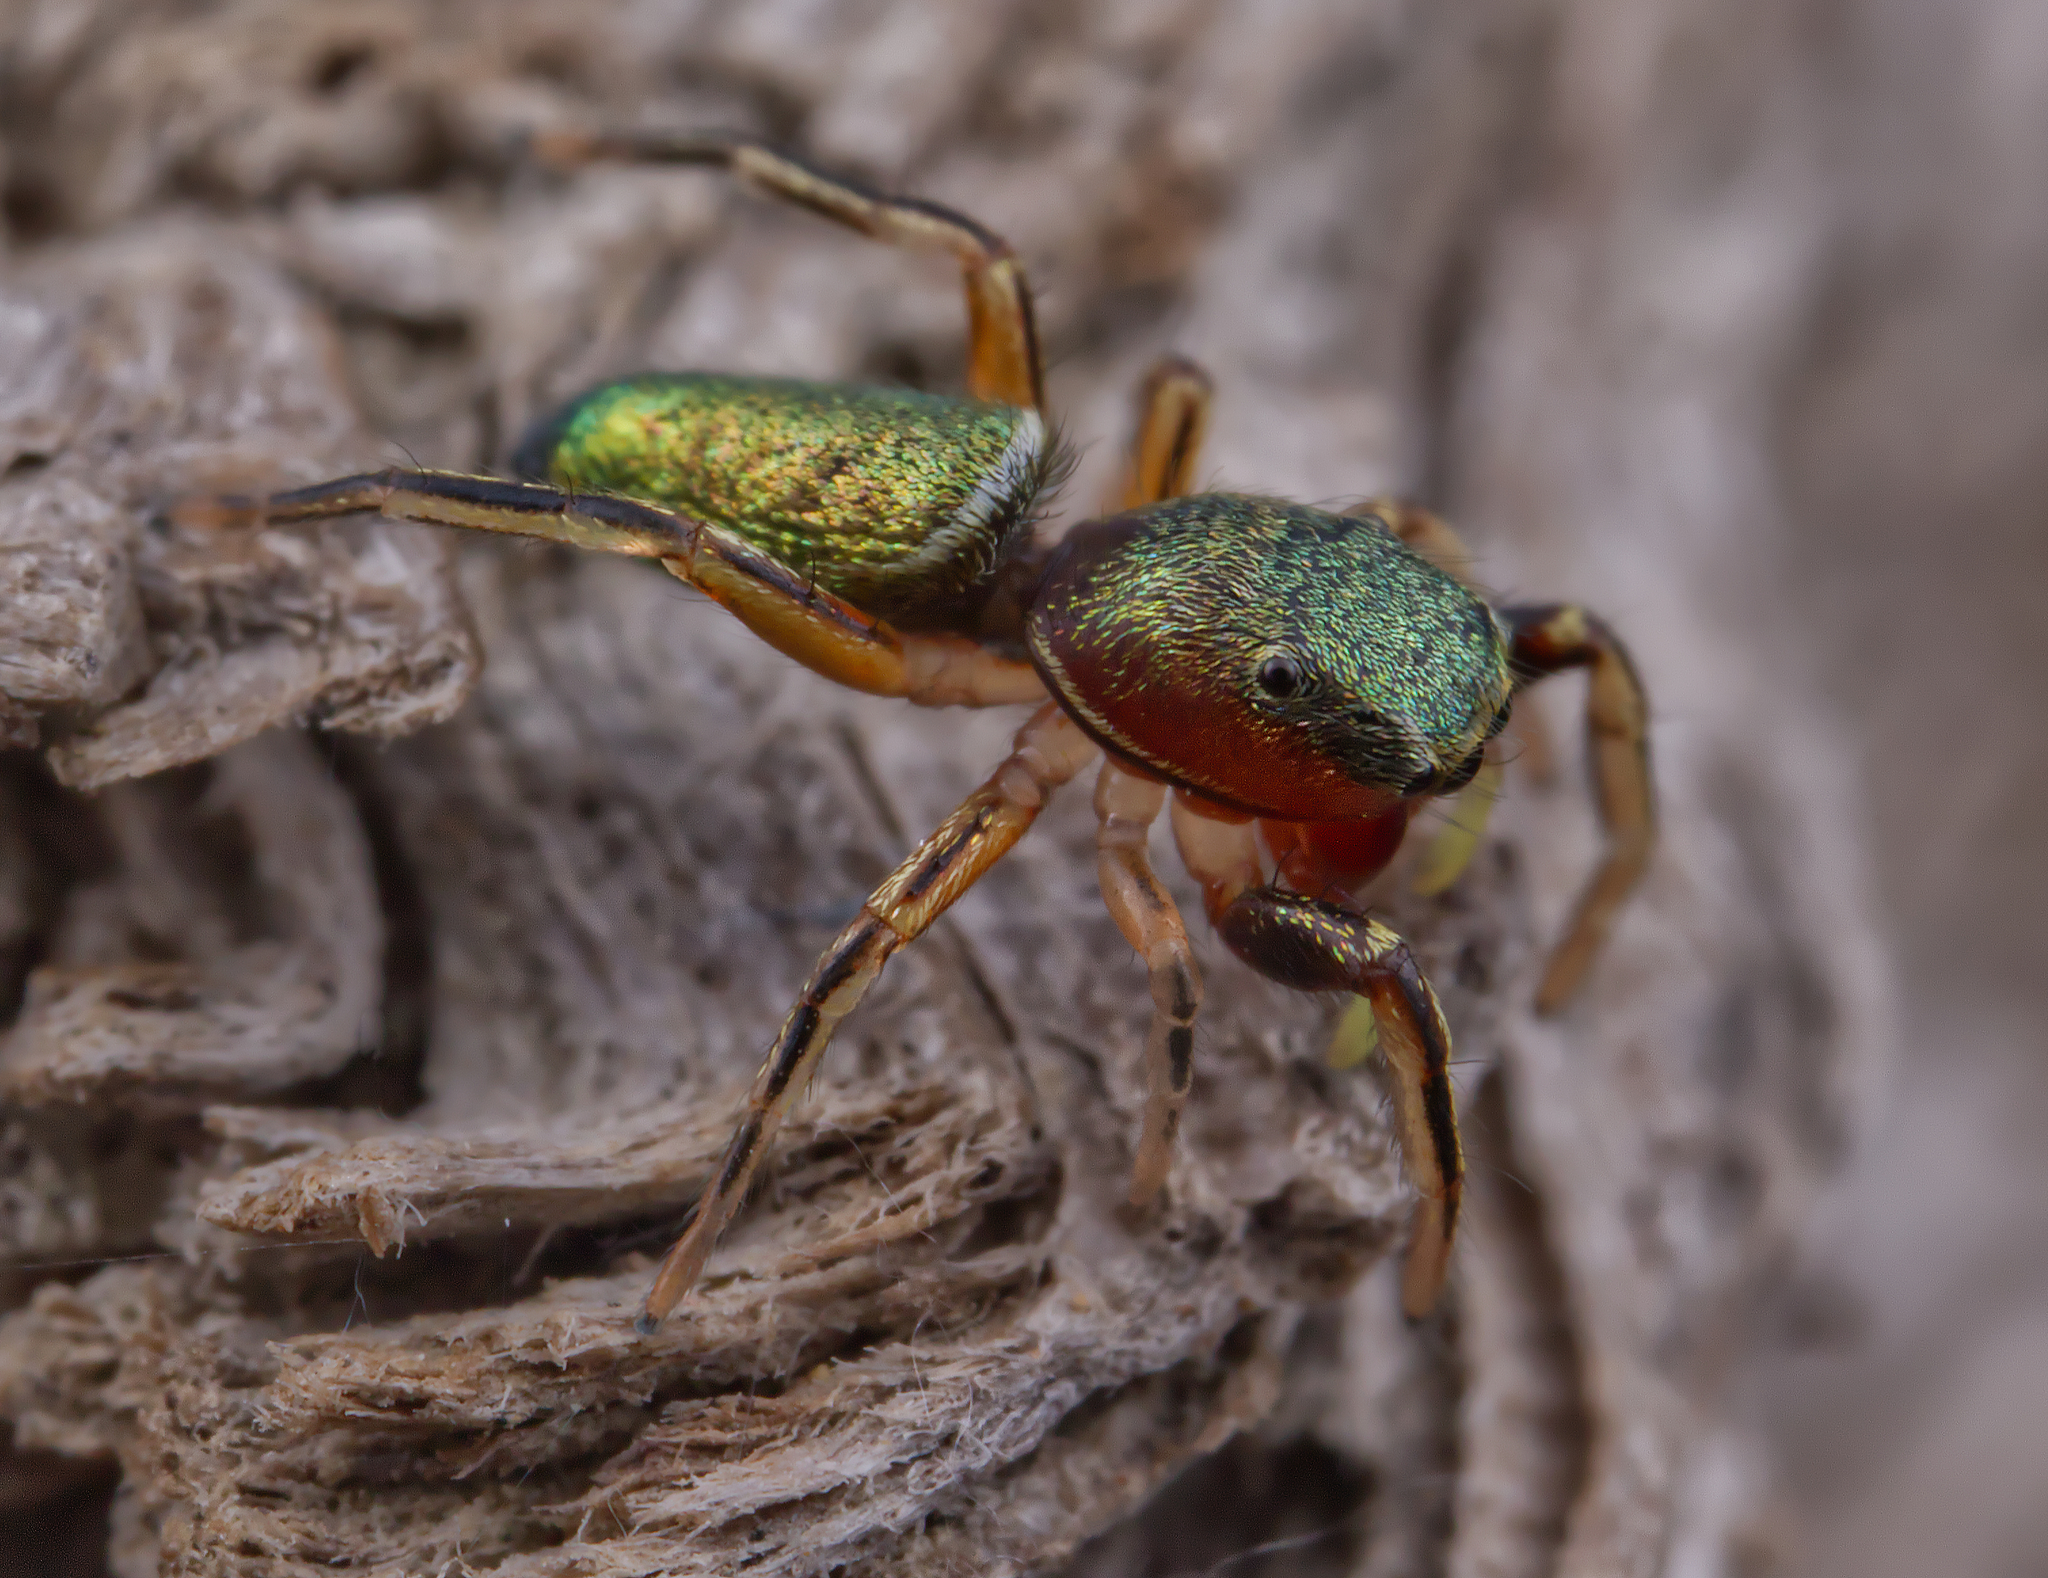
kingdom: Animalia
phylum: Arthropoda
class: Arachnida
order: Araneae
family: Salticidae
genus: Tutelina
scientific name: Tutelina elegans
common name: Thin-spined jumping spider
